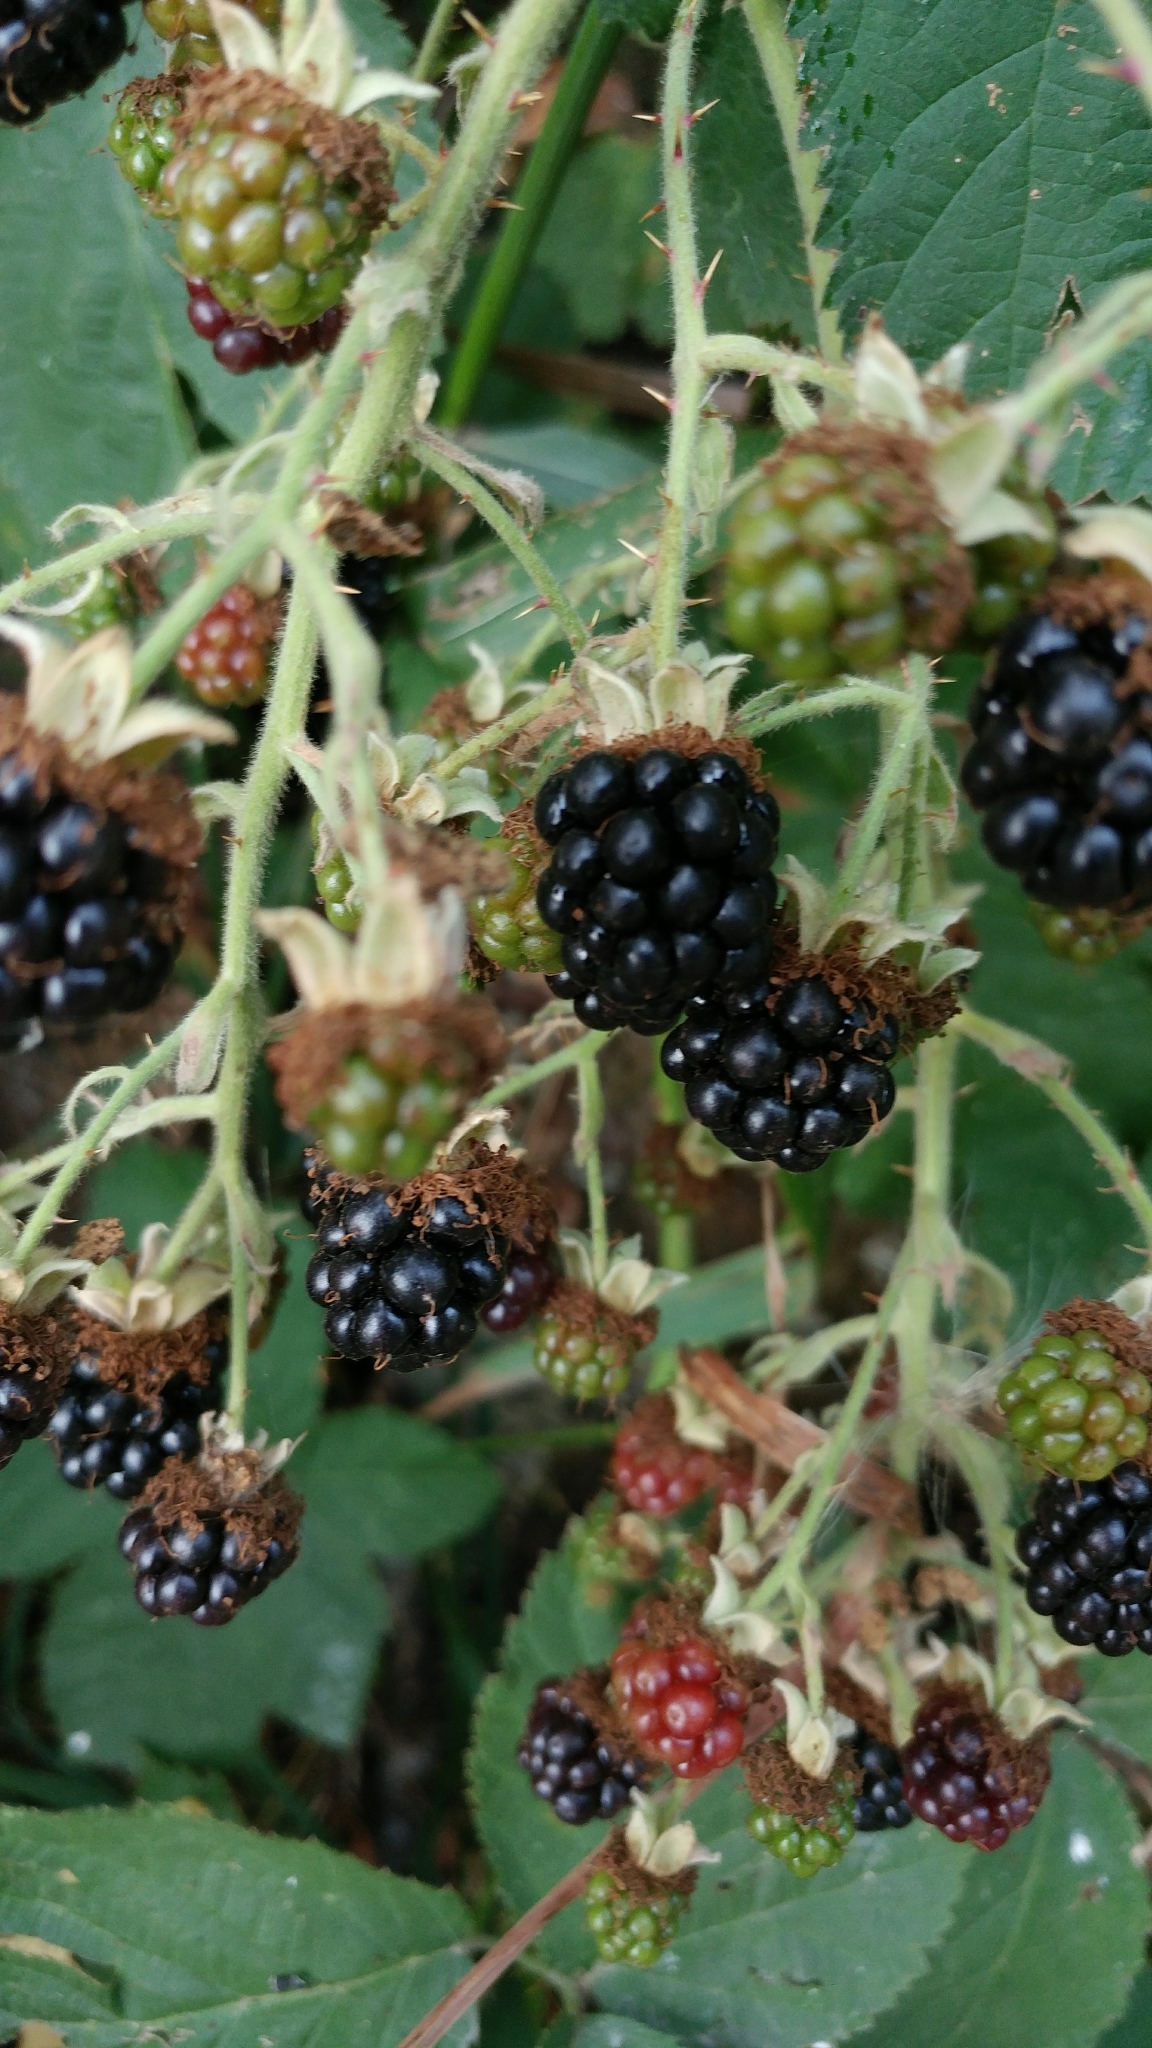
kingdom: Plantae
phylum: Tracheophyta
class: Magnoliopsida
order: Rosales
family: Rosaceae
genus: Rubus
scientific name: Rubus armeniacus
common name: Himalayan blackberry
